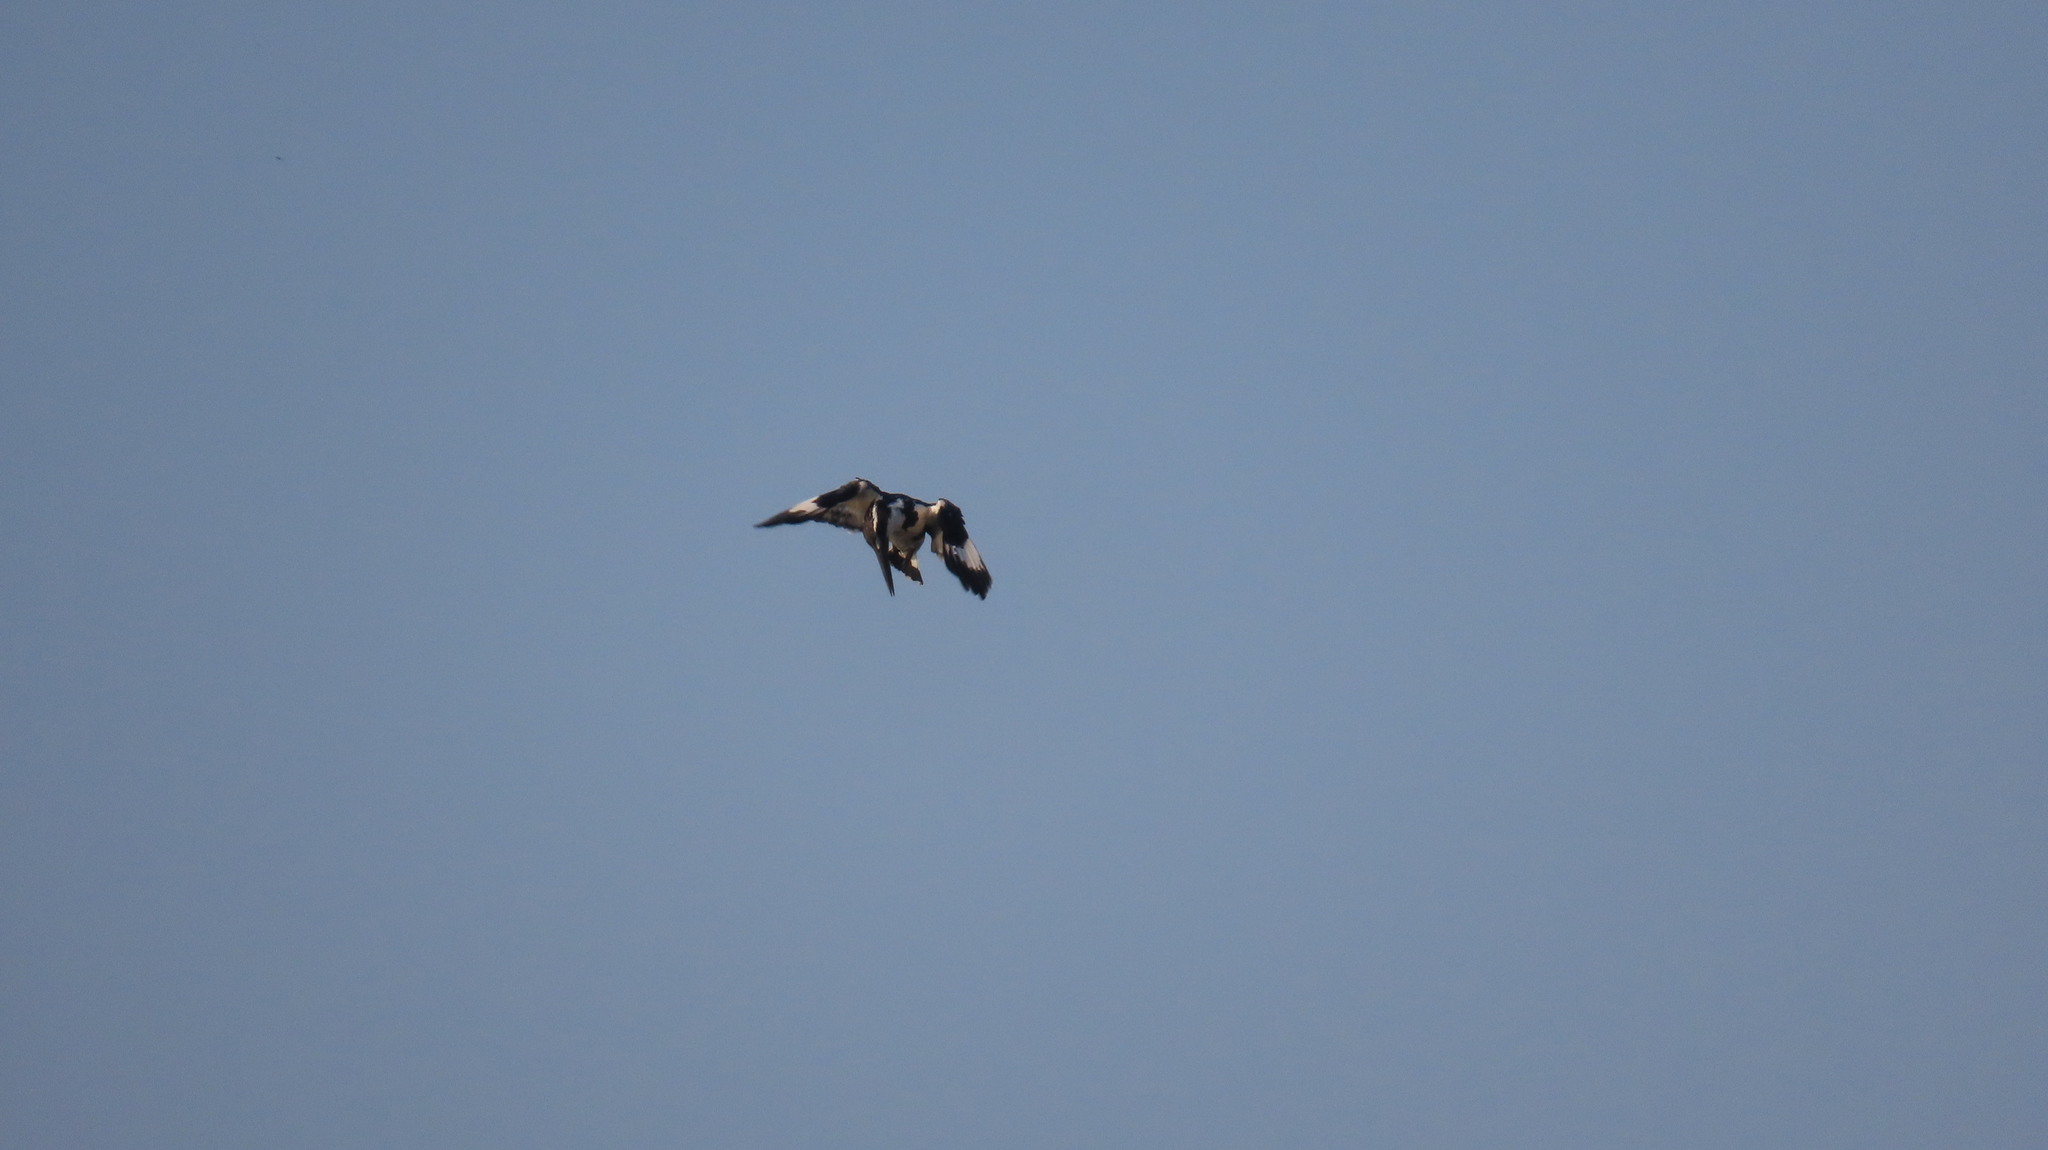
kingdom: Animalia
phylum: Chordata
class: Aves
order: Coraciiformes
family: Alcedinidae
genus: Ceryle
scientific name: Ceryle rudis
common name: Pied kingfisher
